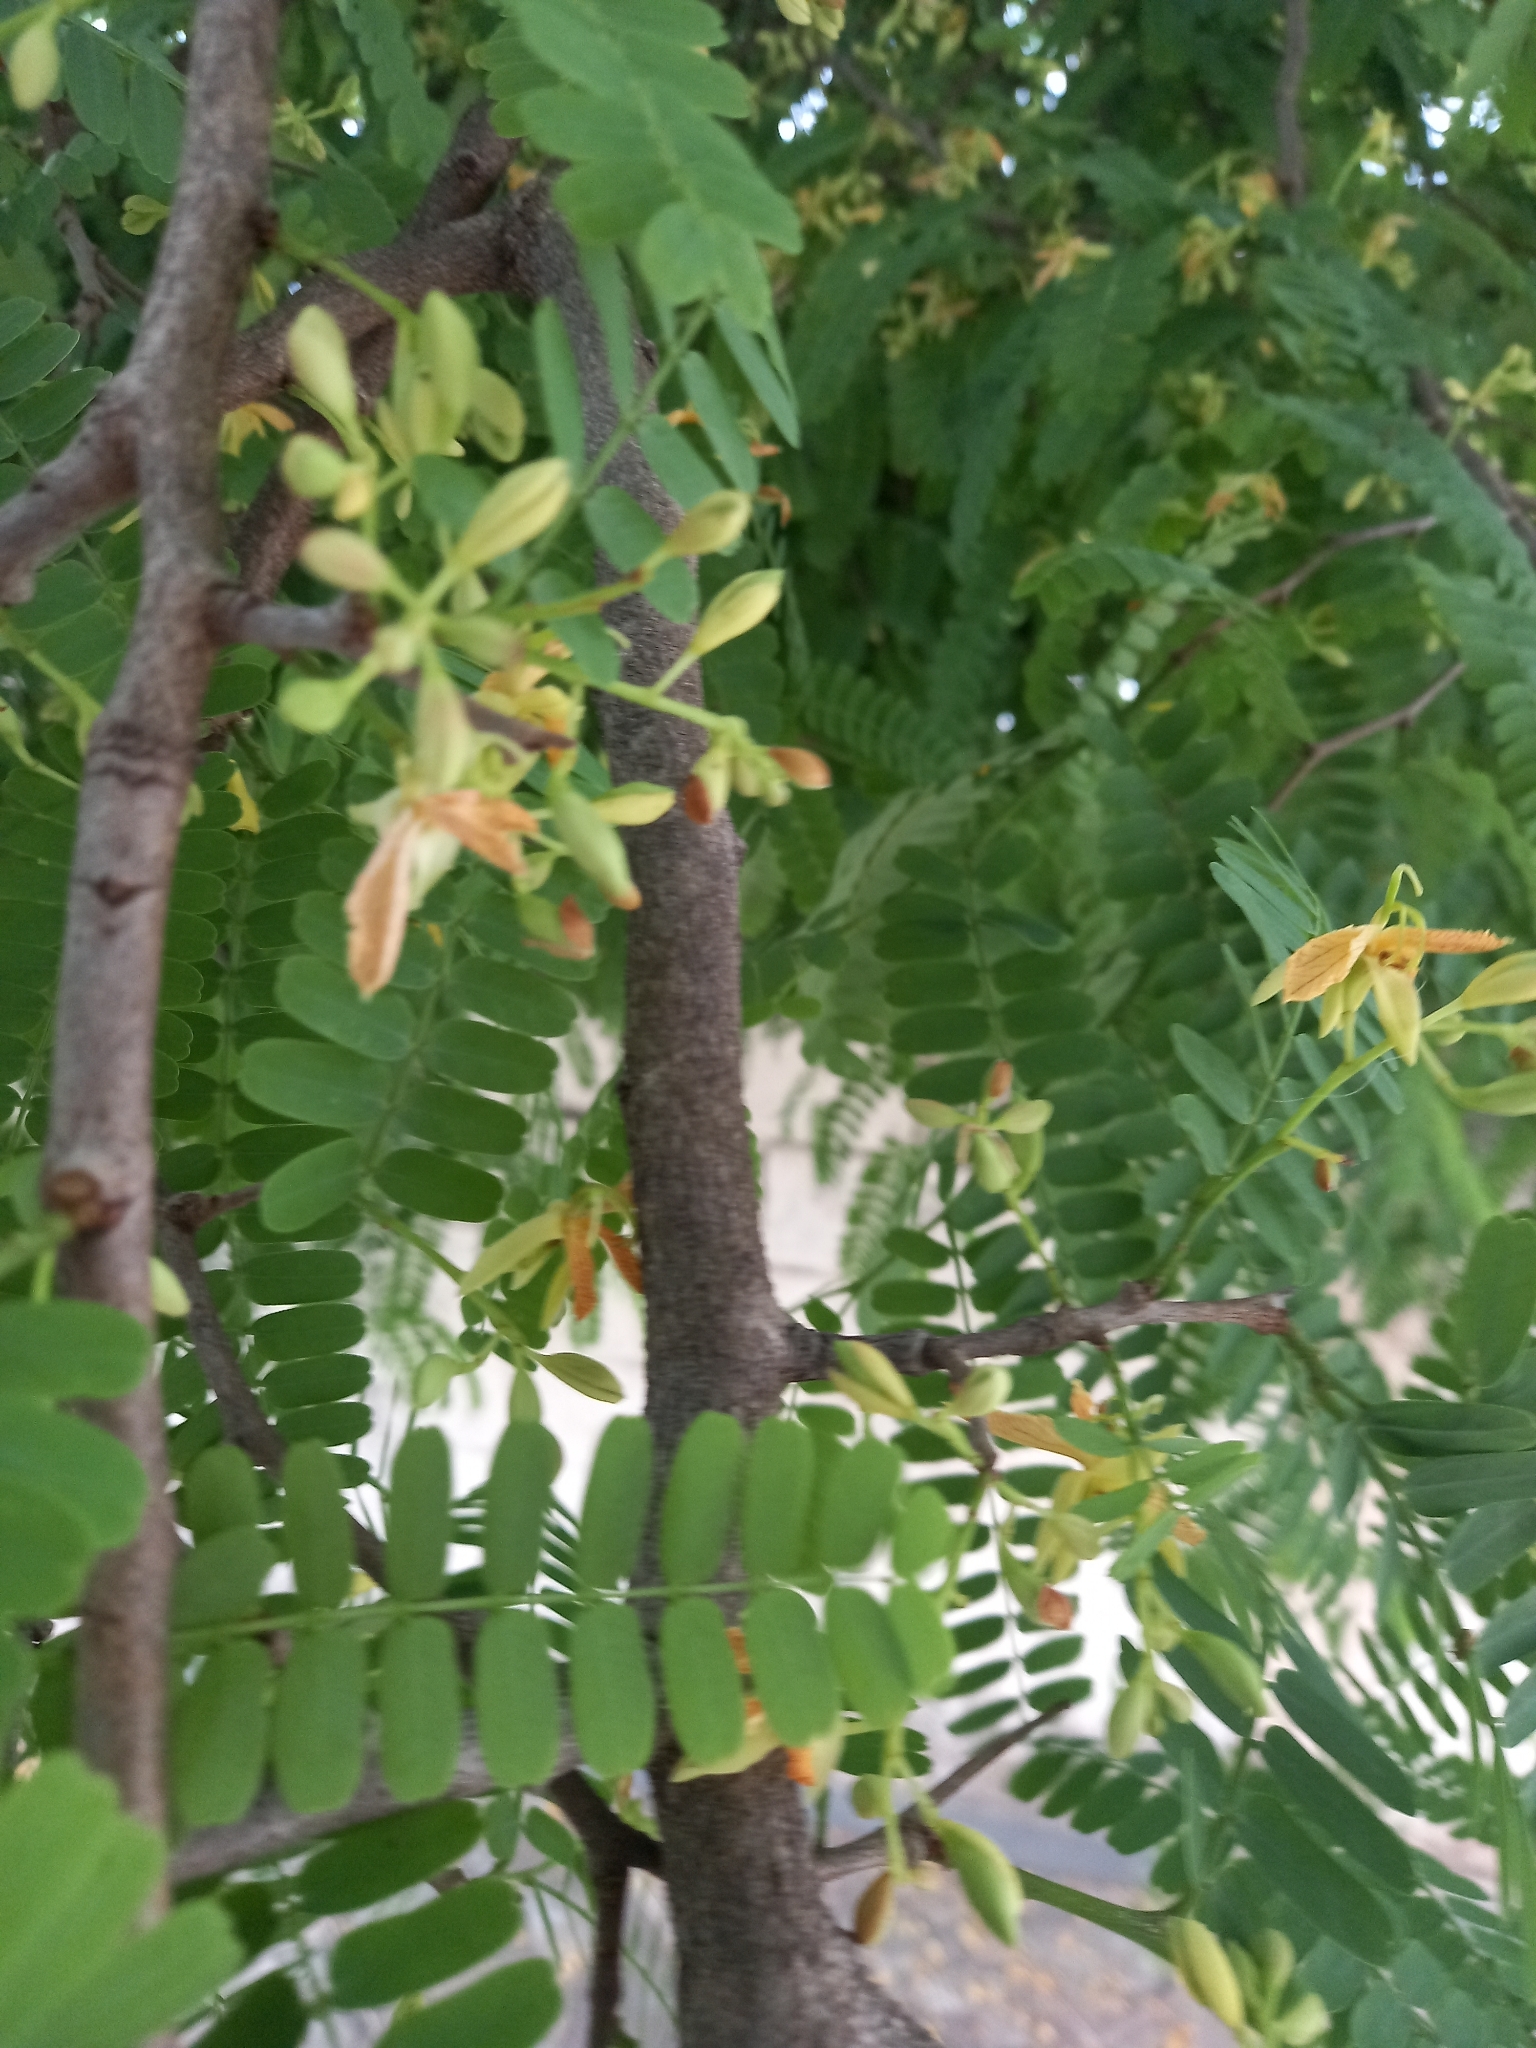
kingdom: Plantae
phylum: Tracheophyta
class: Magnoliopsida
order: Fabales
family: Fabaceae
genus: Tamarindus
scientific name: Tamarindus indica
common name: Tamarind
